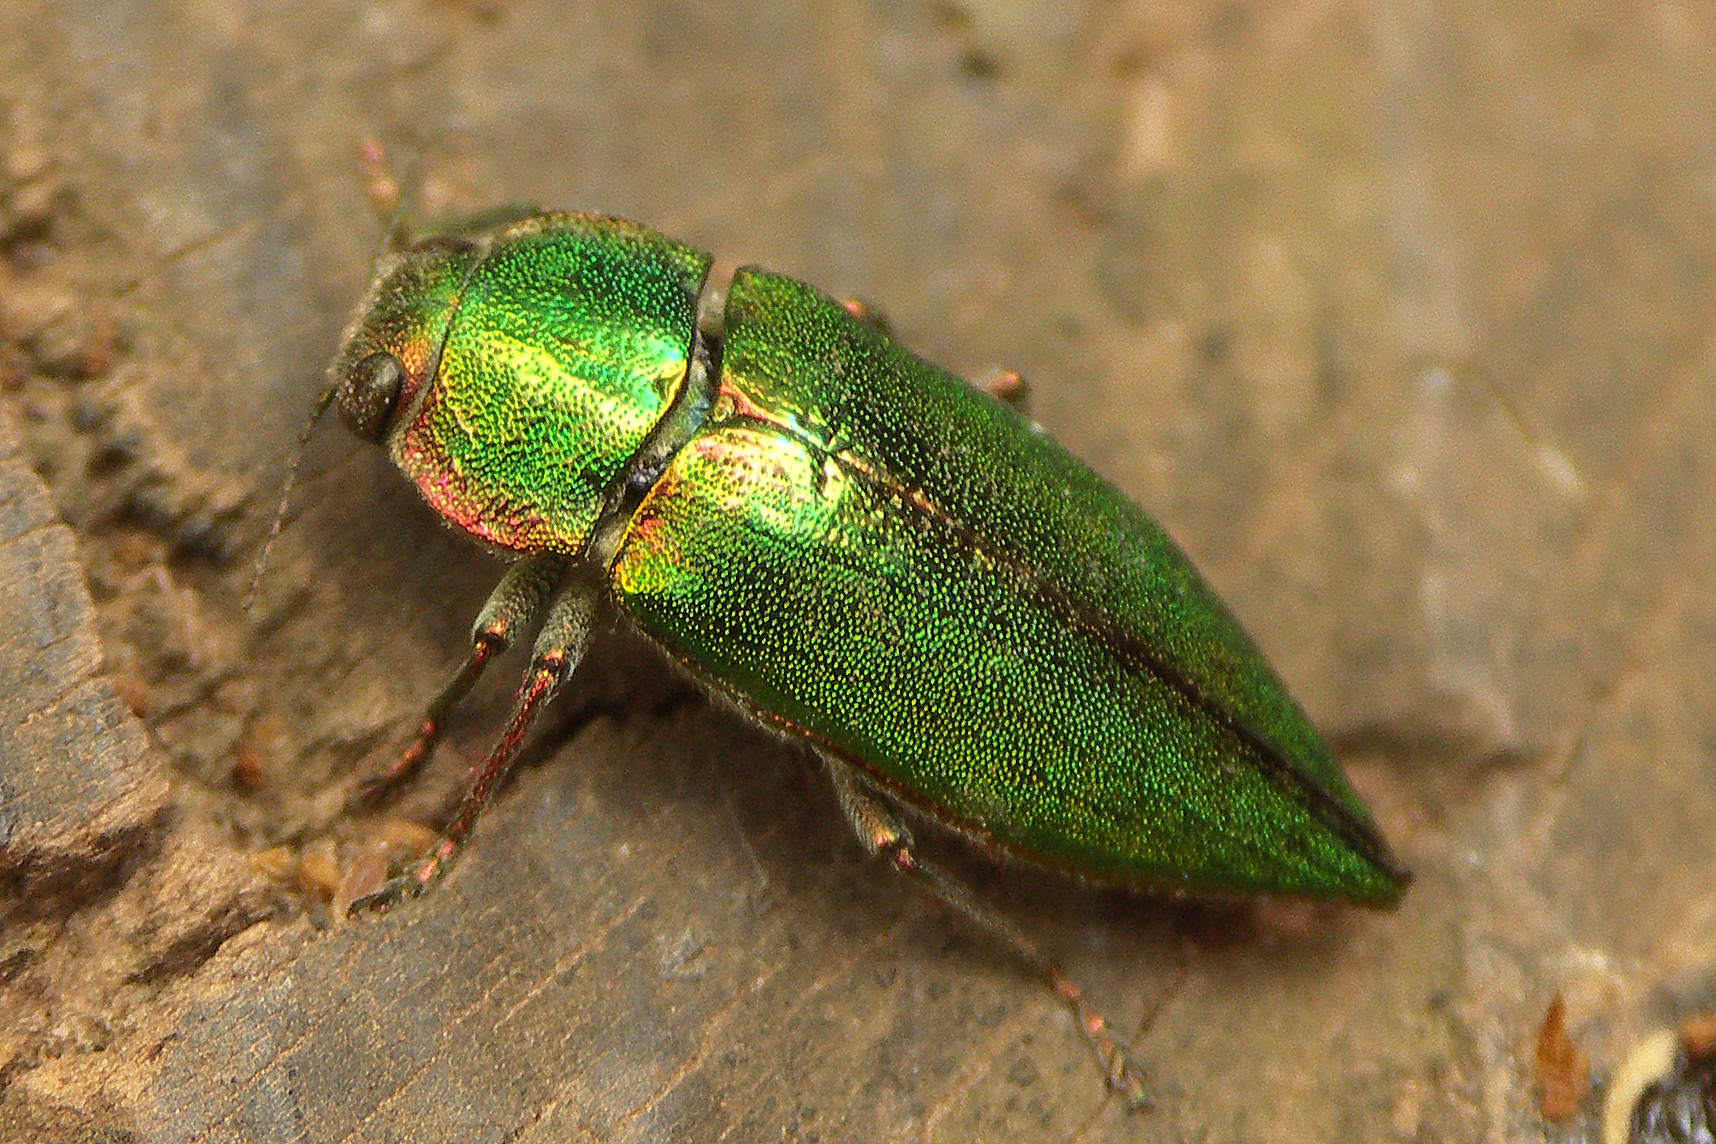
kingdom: Animalia
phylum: Arthropoda
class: Insecta
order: Coleoptera
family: Buprestidae
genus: Latipalpis
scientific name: Latipalpis plana
